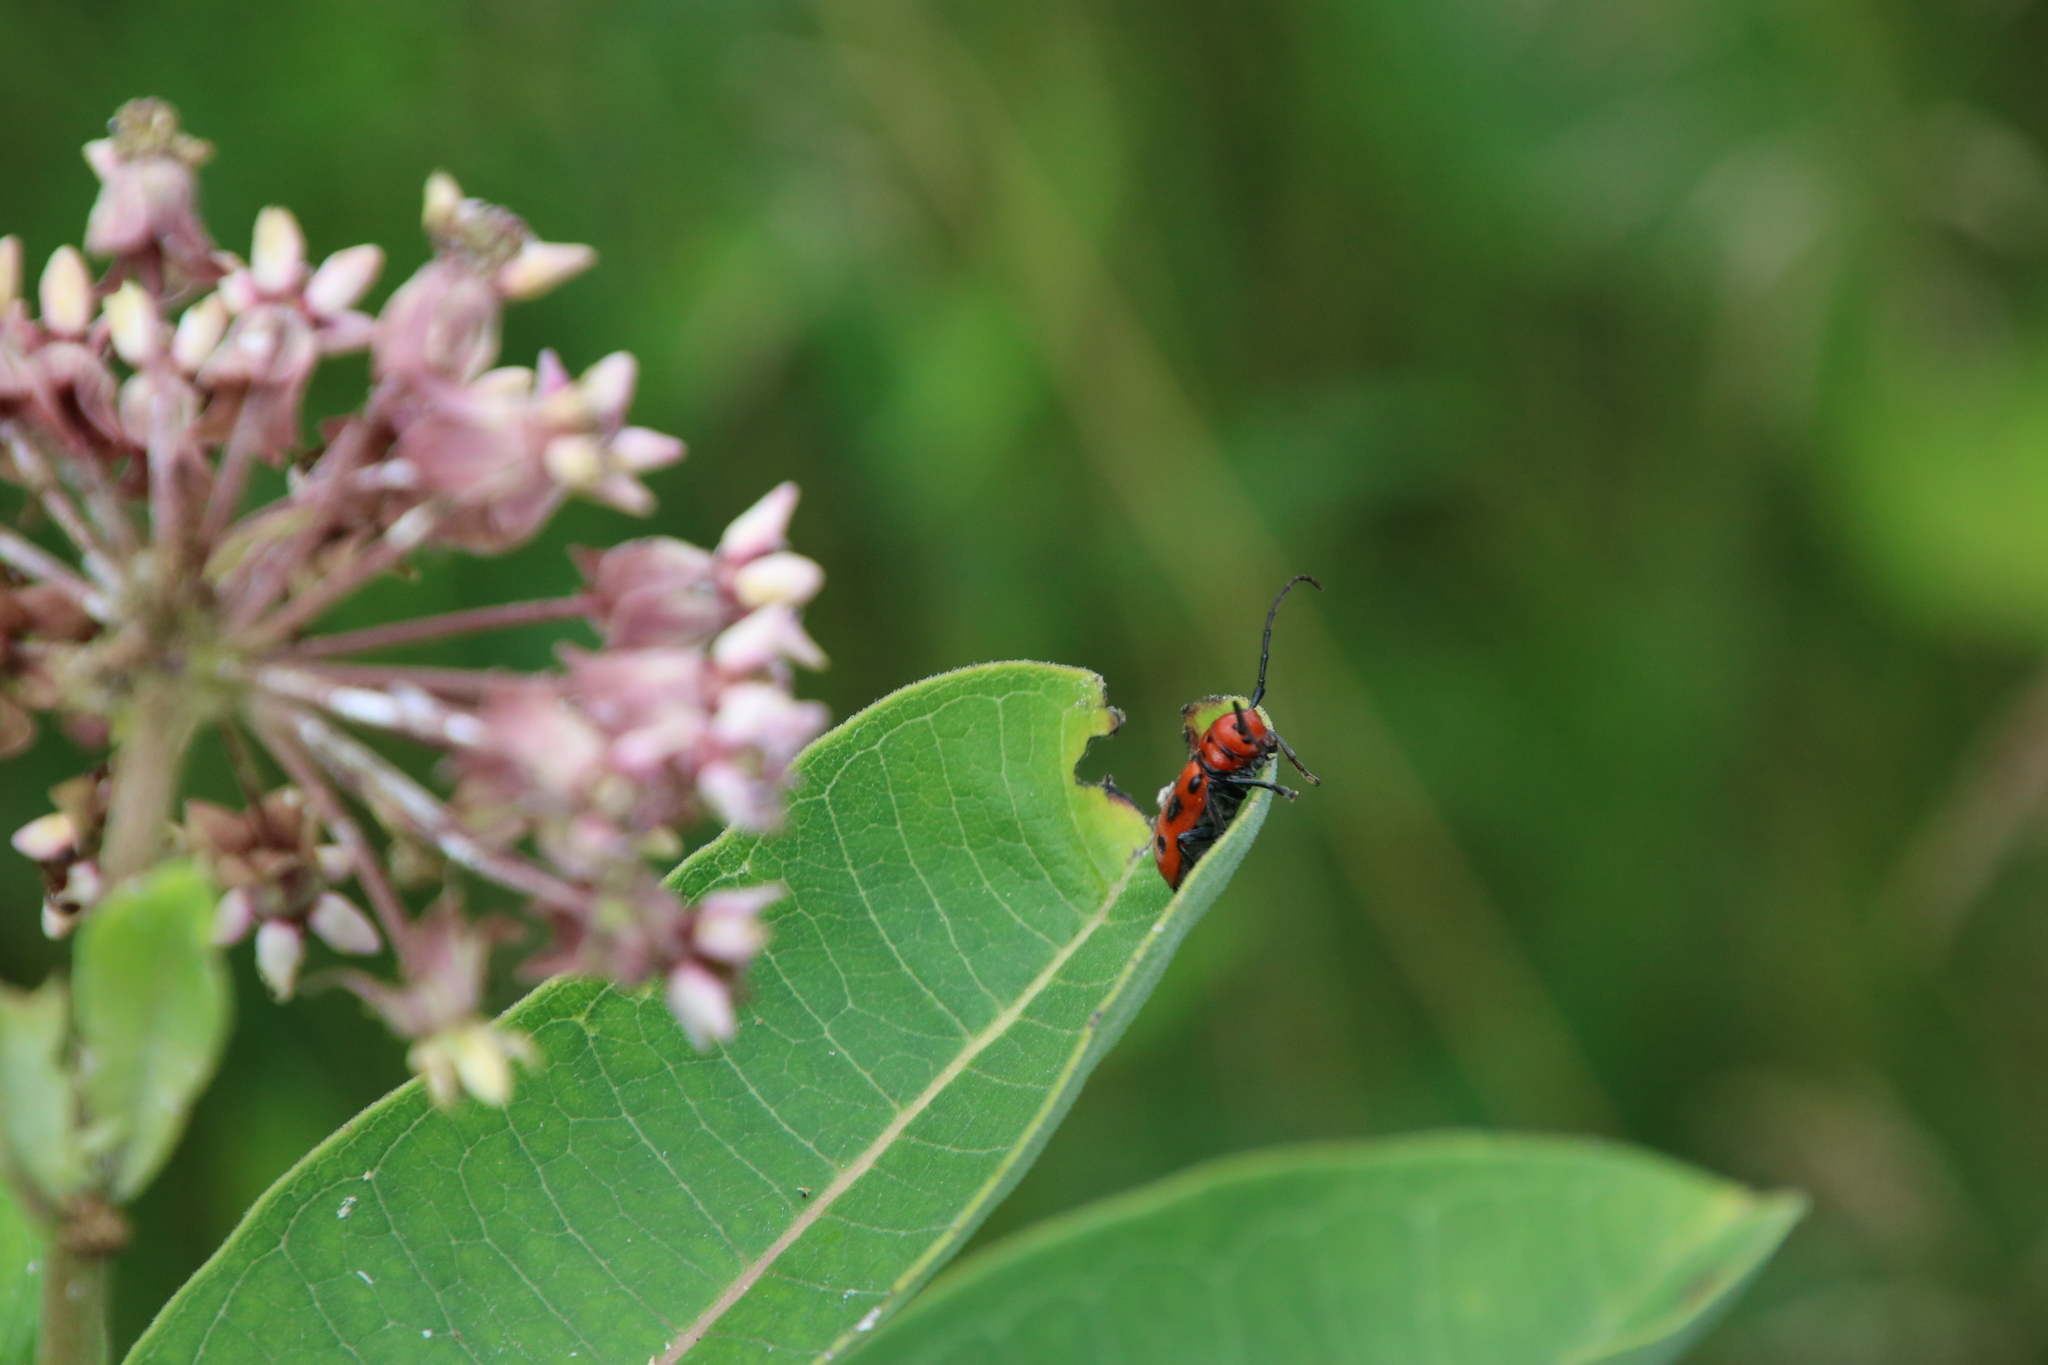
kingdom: Animalia
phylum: Arthropoda
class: Insecta
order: Coleoptera
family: Cerambycidae
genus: Tetraopes
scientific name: Tetraopes tetrophthalmus
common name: Red milkweed beetle
